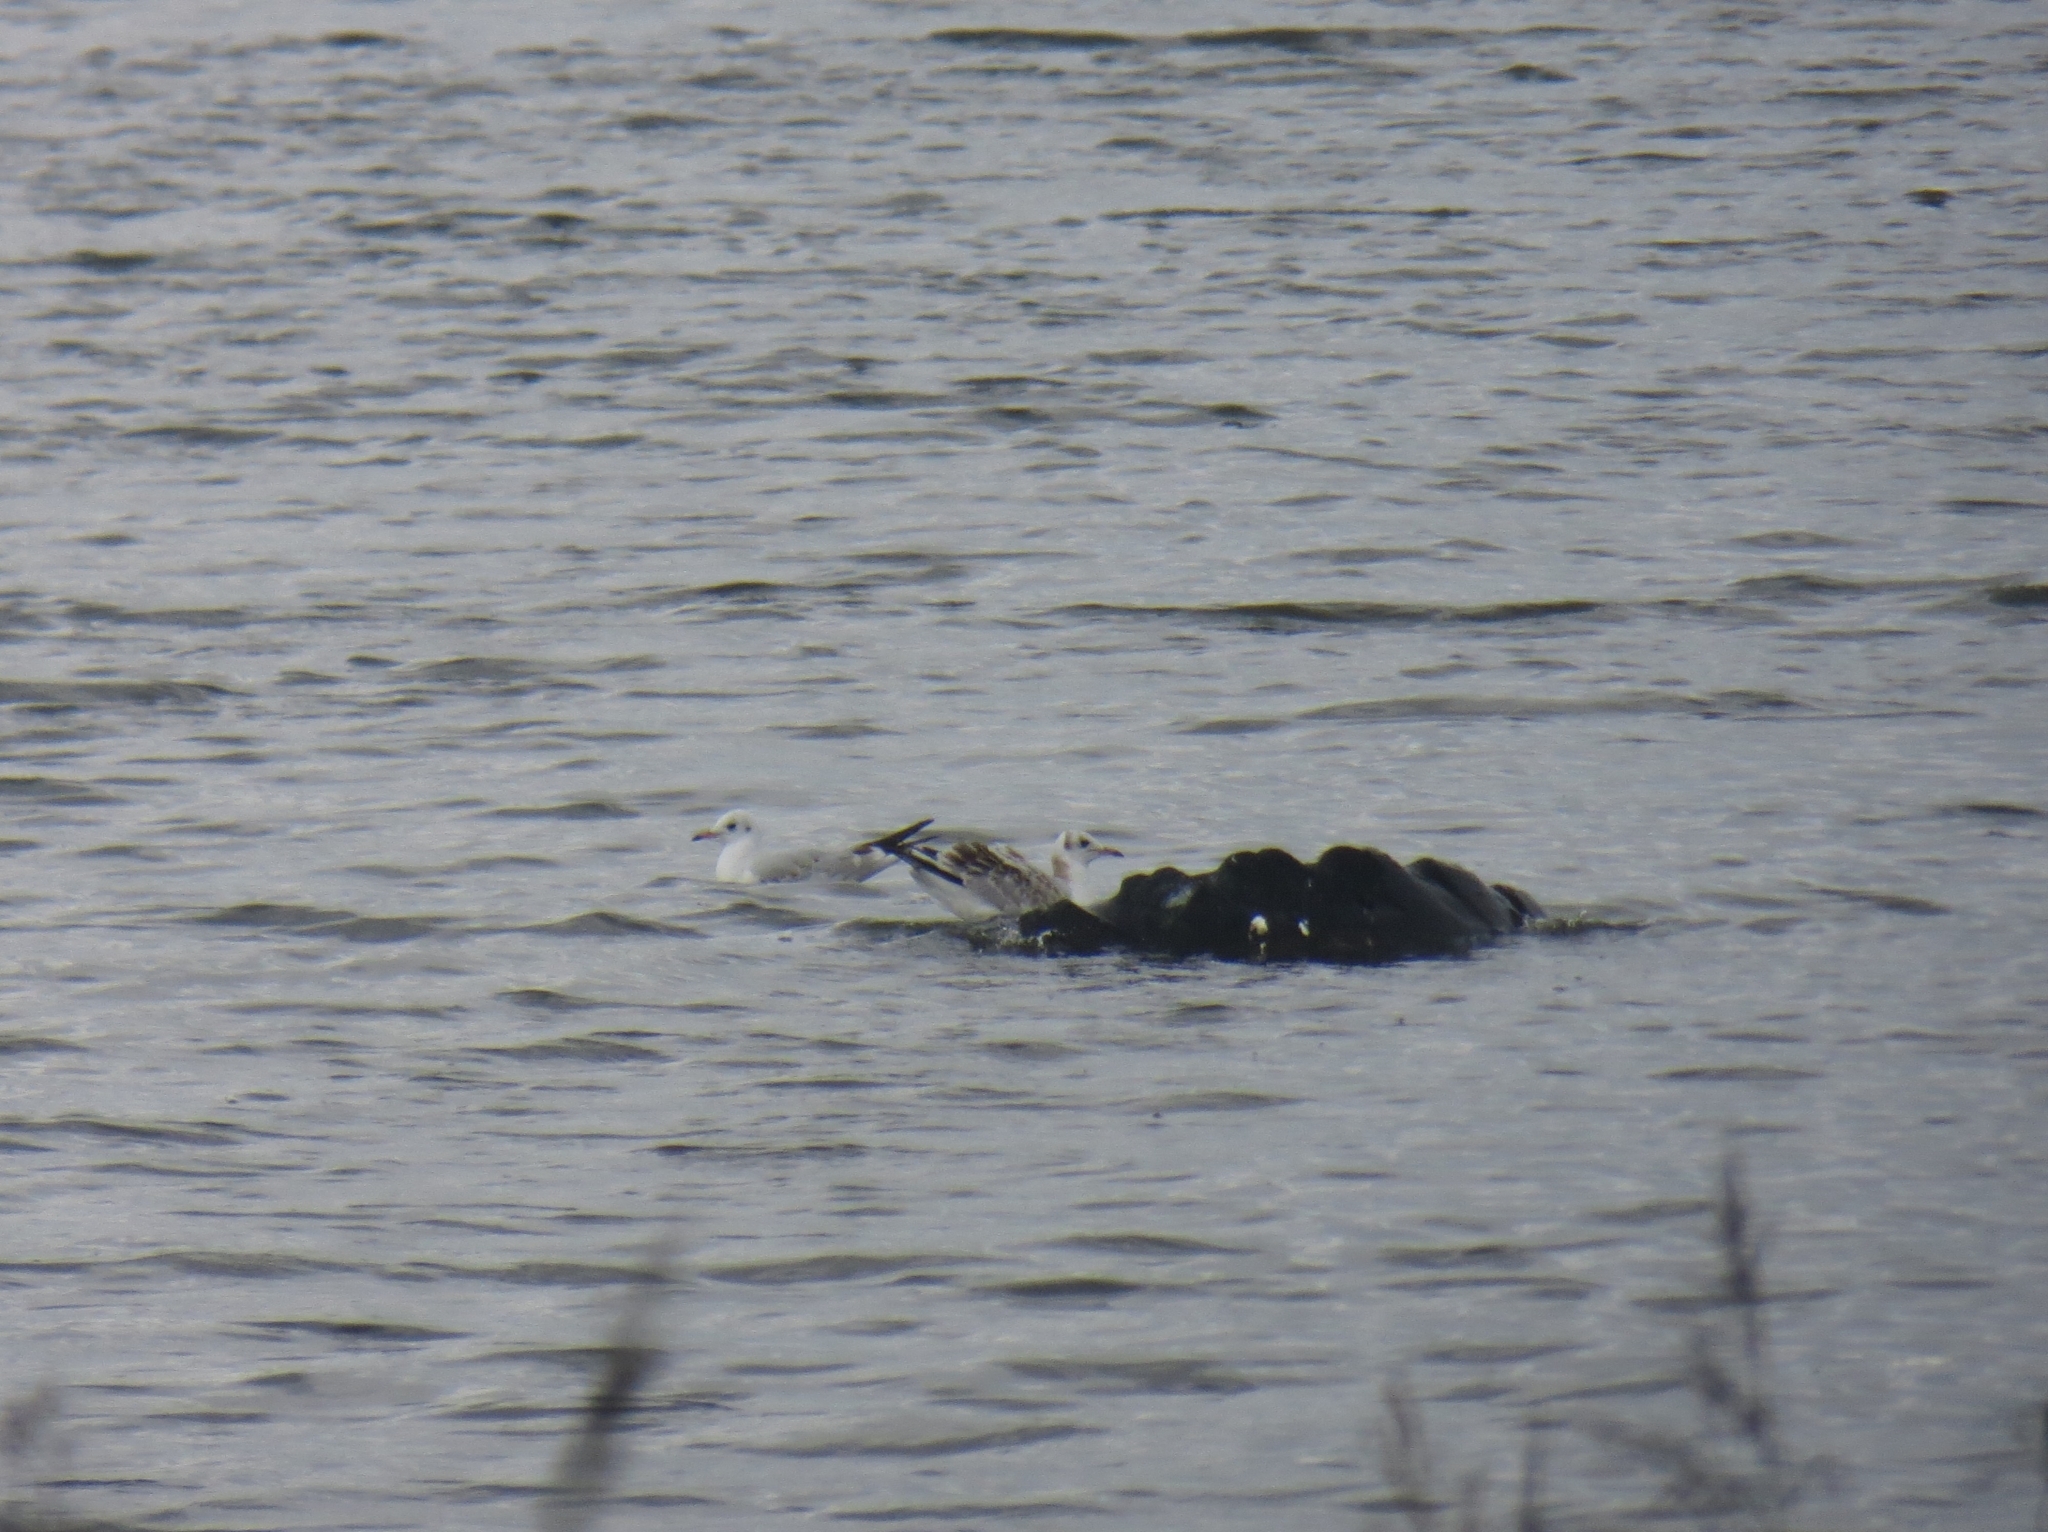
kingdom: Animalia
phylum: Chordata
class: Aves
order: Charadriiformes
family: Laridae
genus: Chroicocephalus
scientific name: Chroicocephalus ridibundus
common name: Black-headed gull
